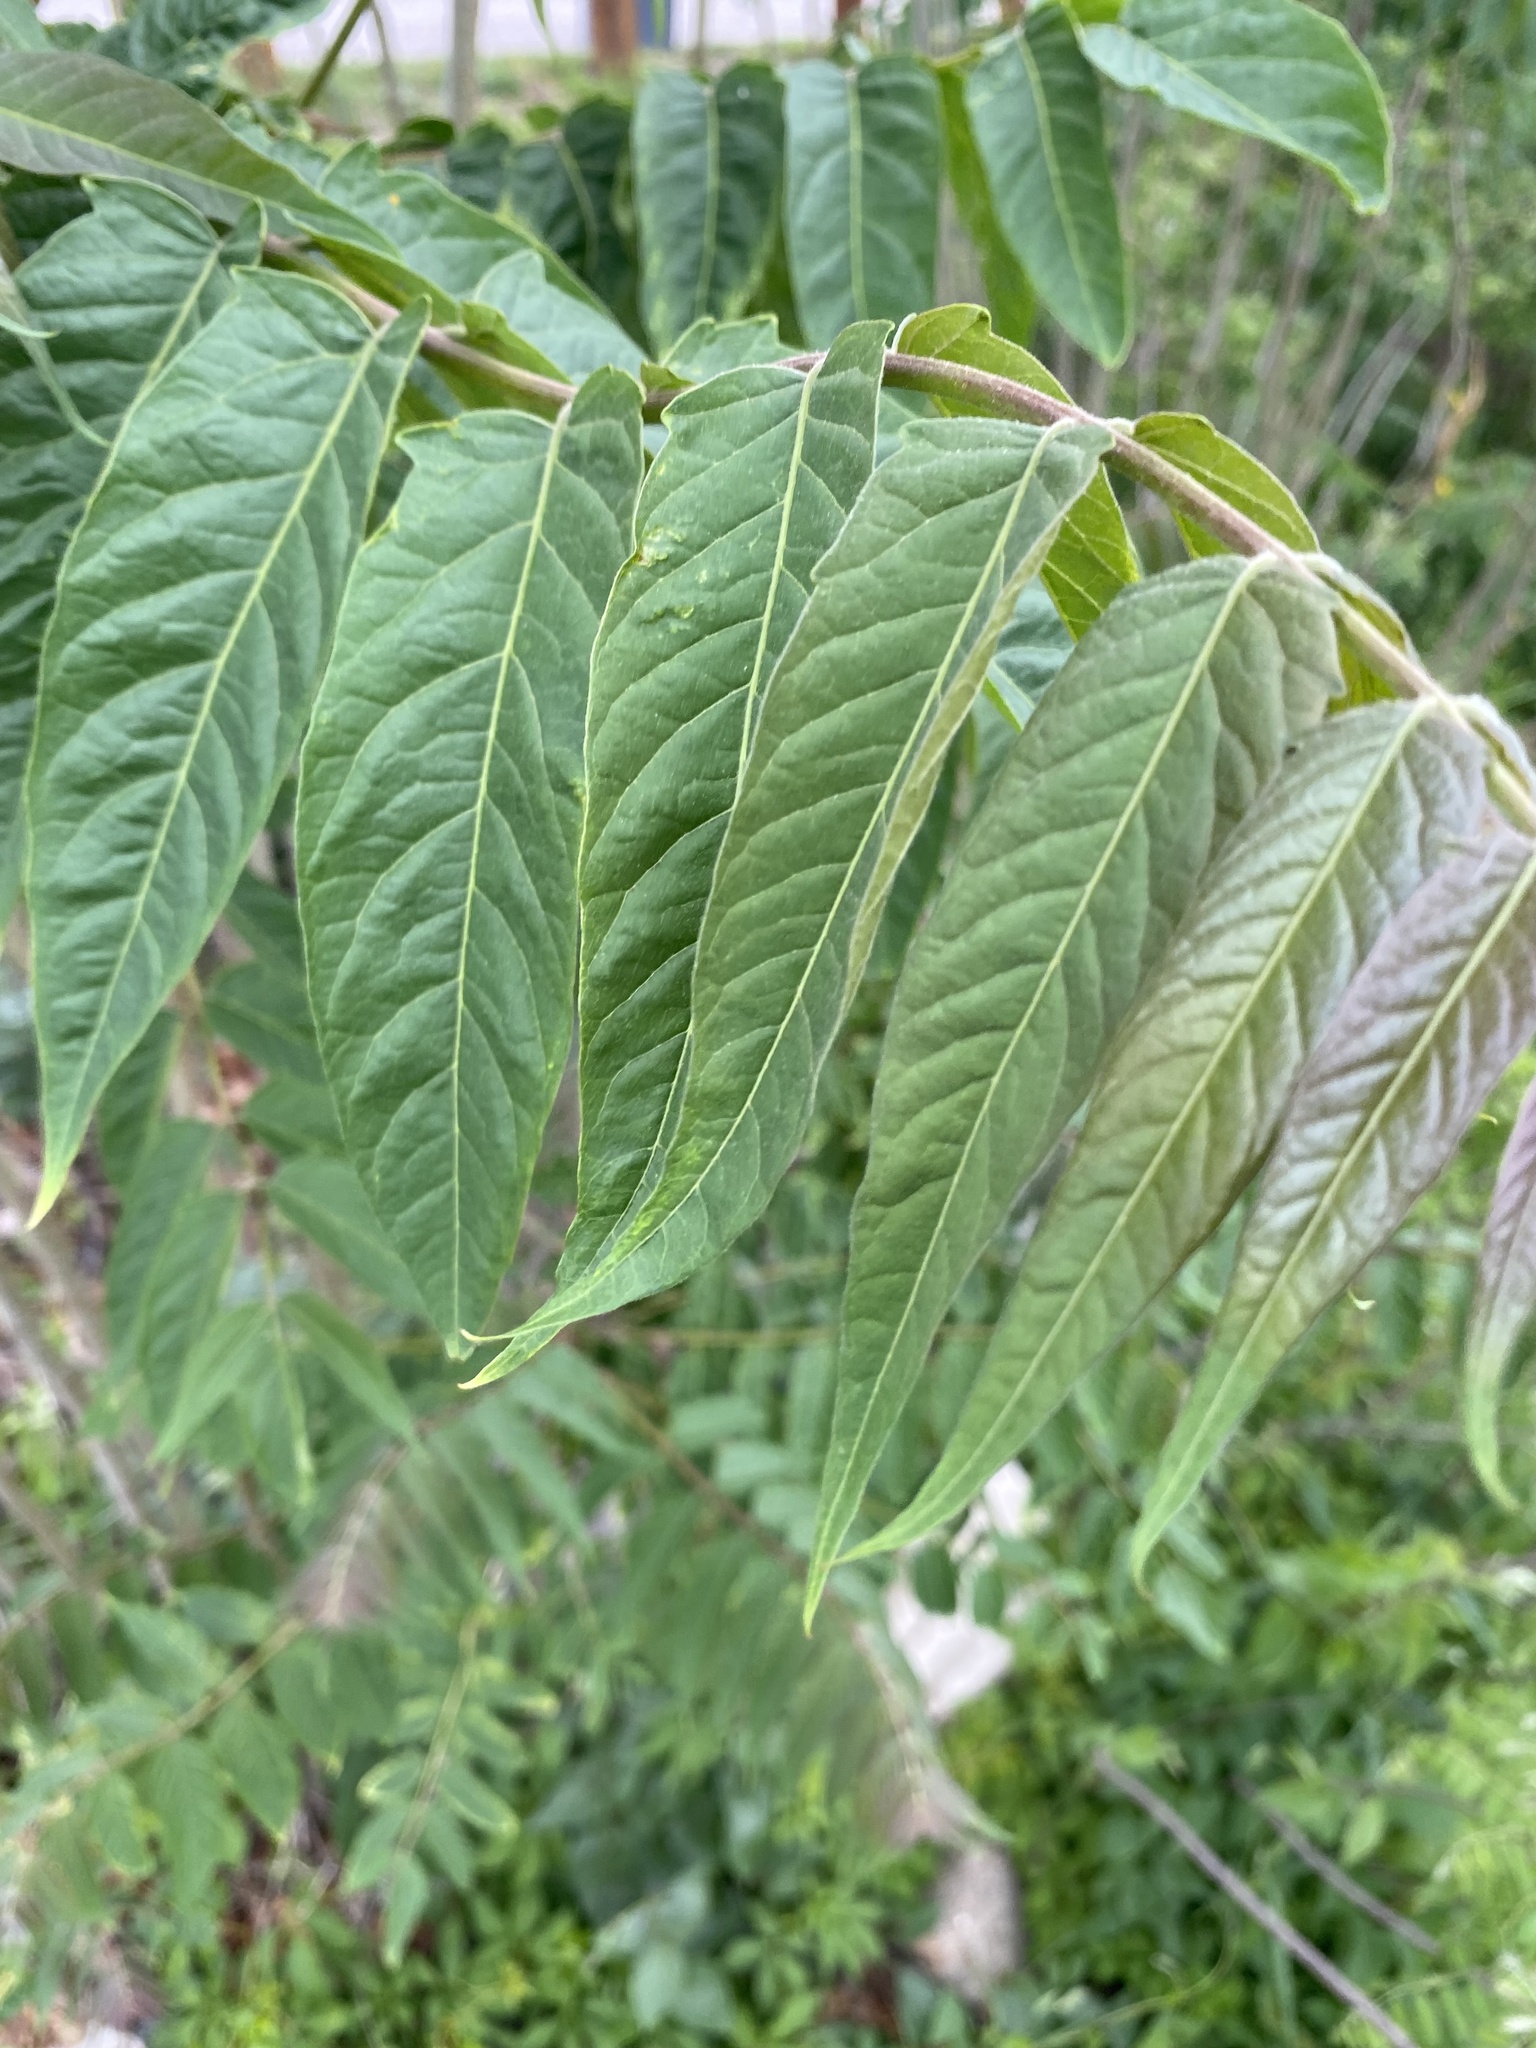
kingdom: Plantae
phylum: Tracheophyta
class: Magnoliopsida
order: Sapindales
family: Simaroubaceae
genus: Ailanthus
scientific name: Ailanthus altissima
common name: Tree-of-heaven
